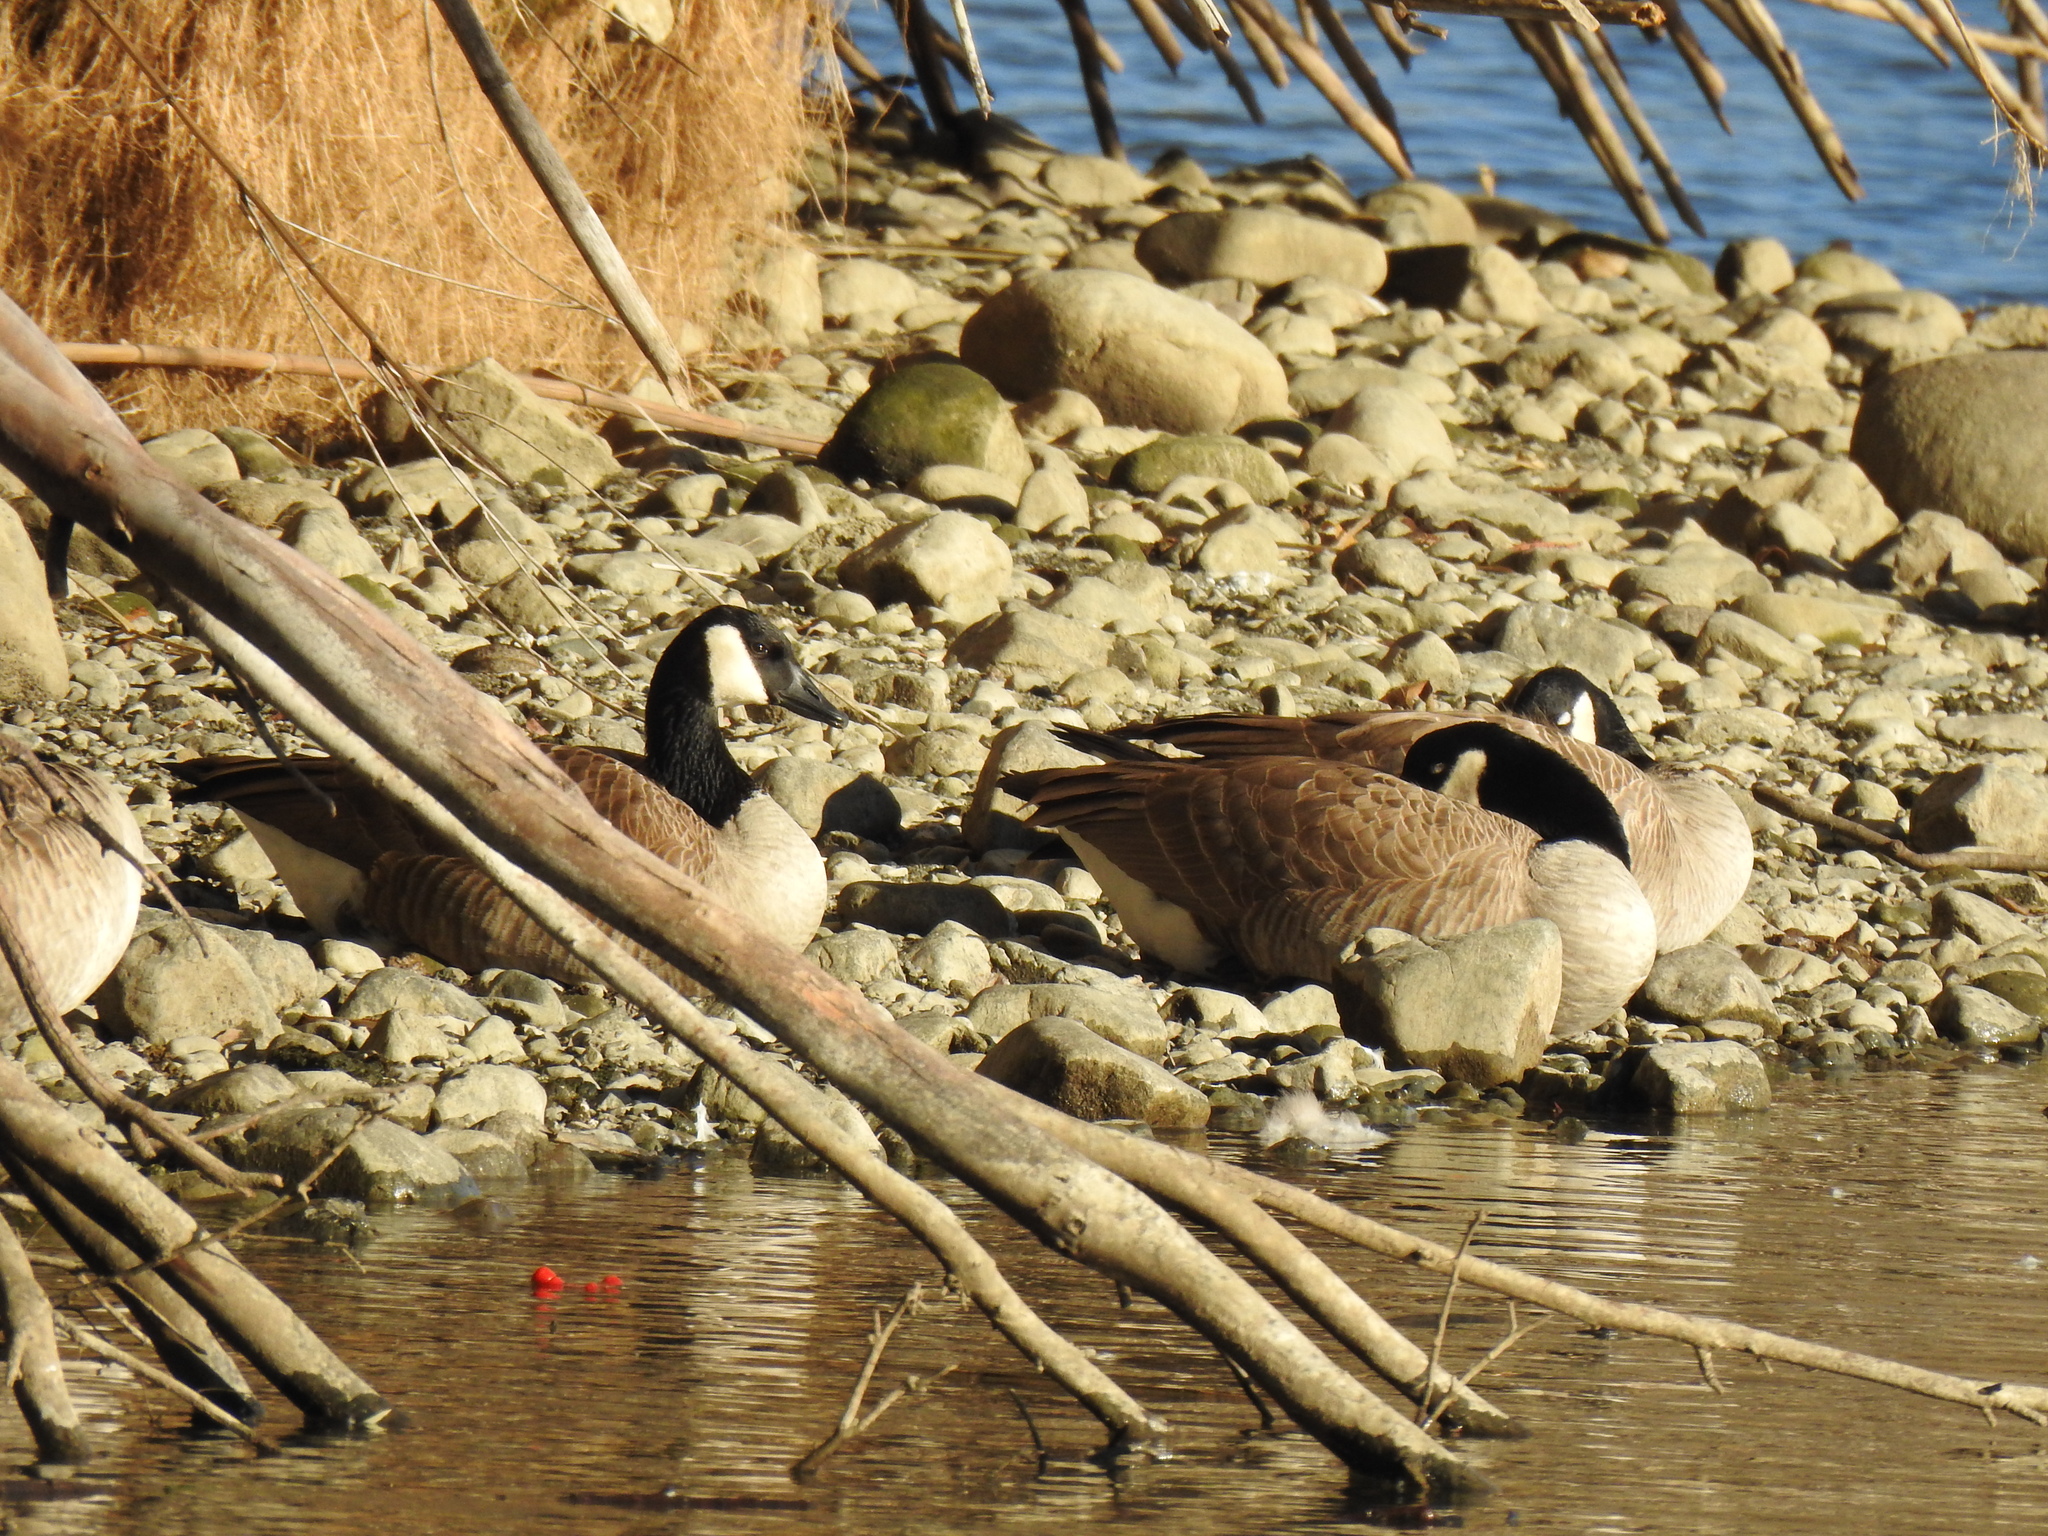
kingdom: Animalia
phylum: Chordata
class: Aves
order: Anseriformes
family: Anatidae
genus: Branta
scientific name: Branta canadensis
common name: Canada goose
